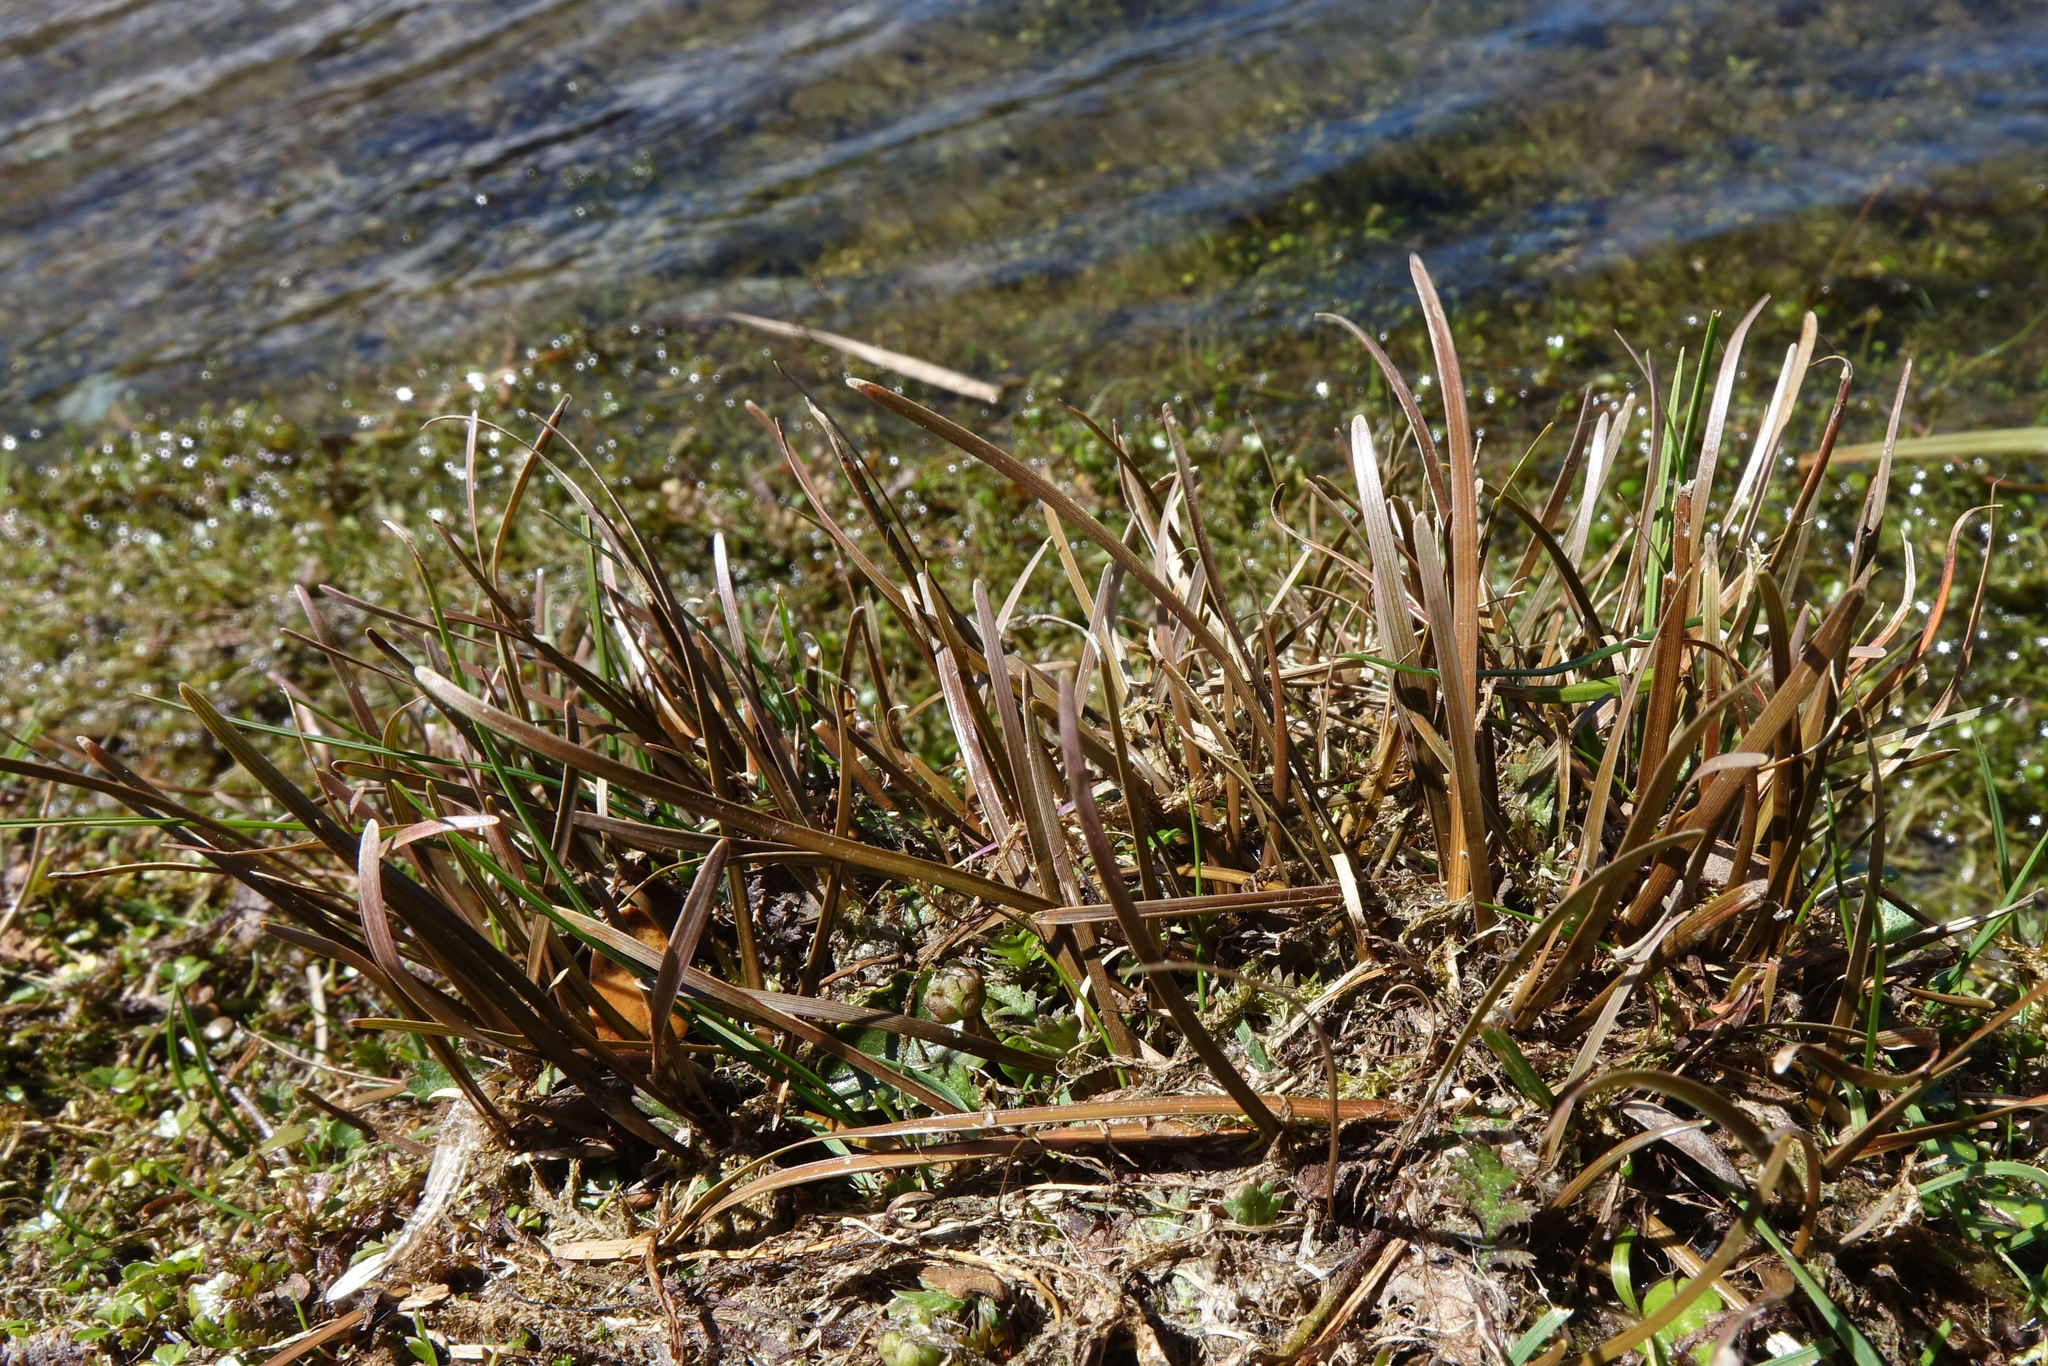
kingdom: Plantae
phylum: Tracheophyta
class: Liliopsida
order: Poales
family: Cyperaceae
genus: Carex
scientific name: Carex rubicunda
